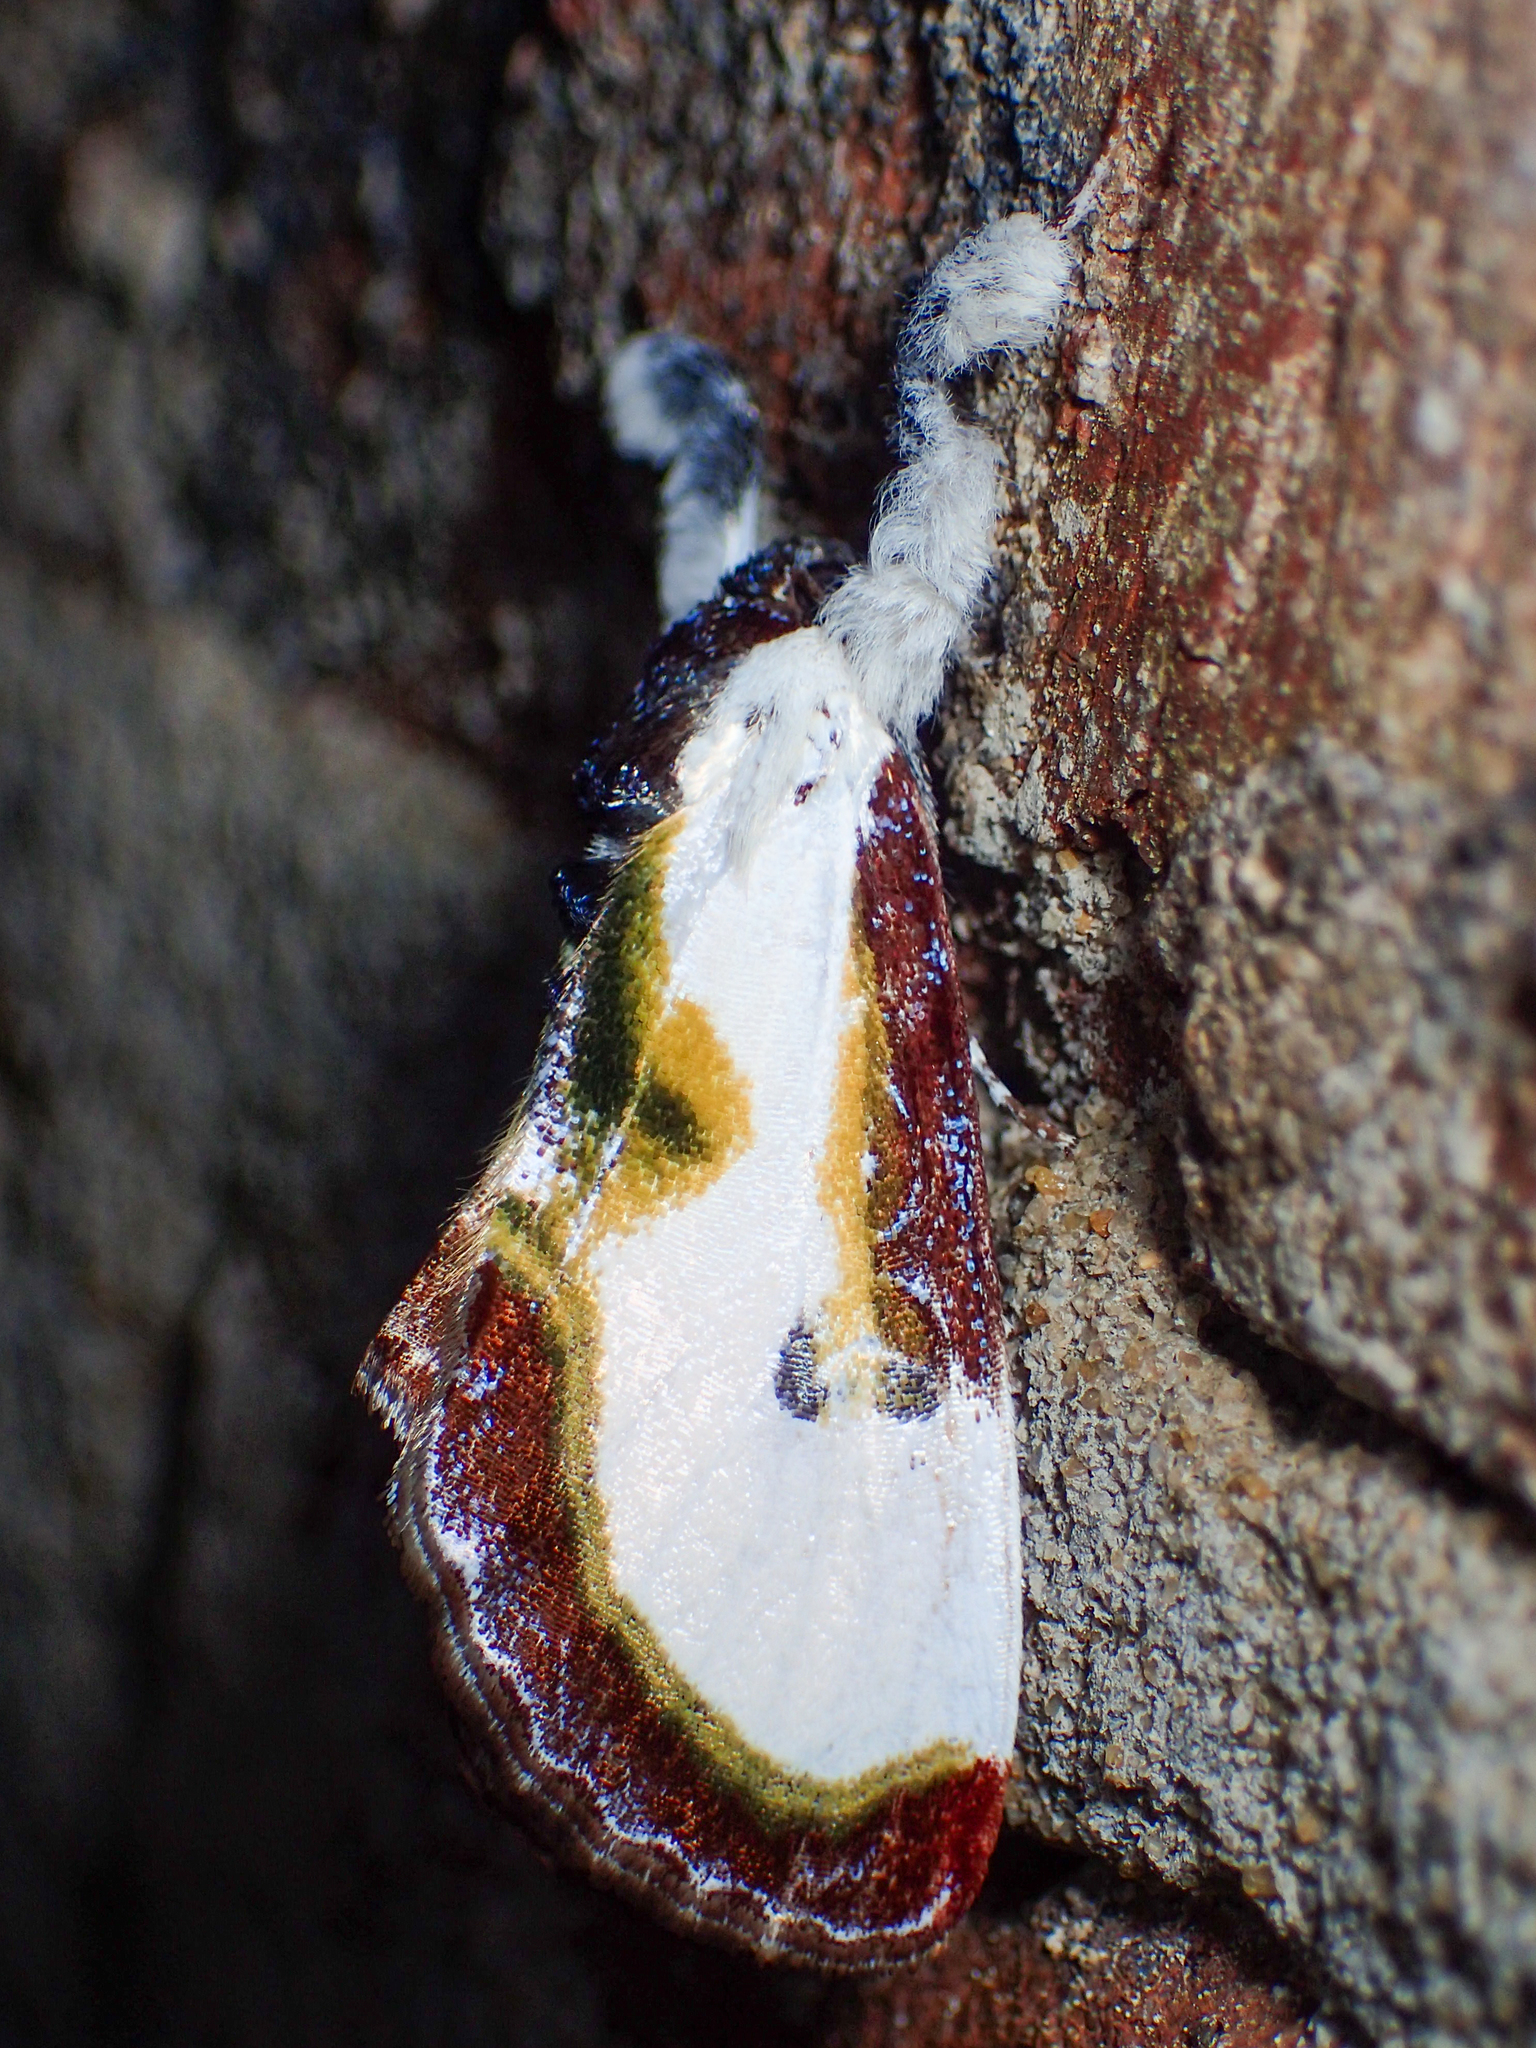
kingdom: Animalia
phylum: Arthropoda
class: Insecta
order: Lepidoptera
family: Noctuidae
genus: Eudryas
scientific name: Eudryas grata
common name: Beautiful wood-nymph
